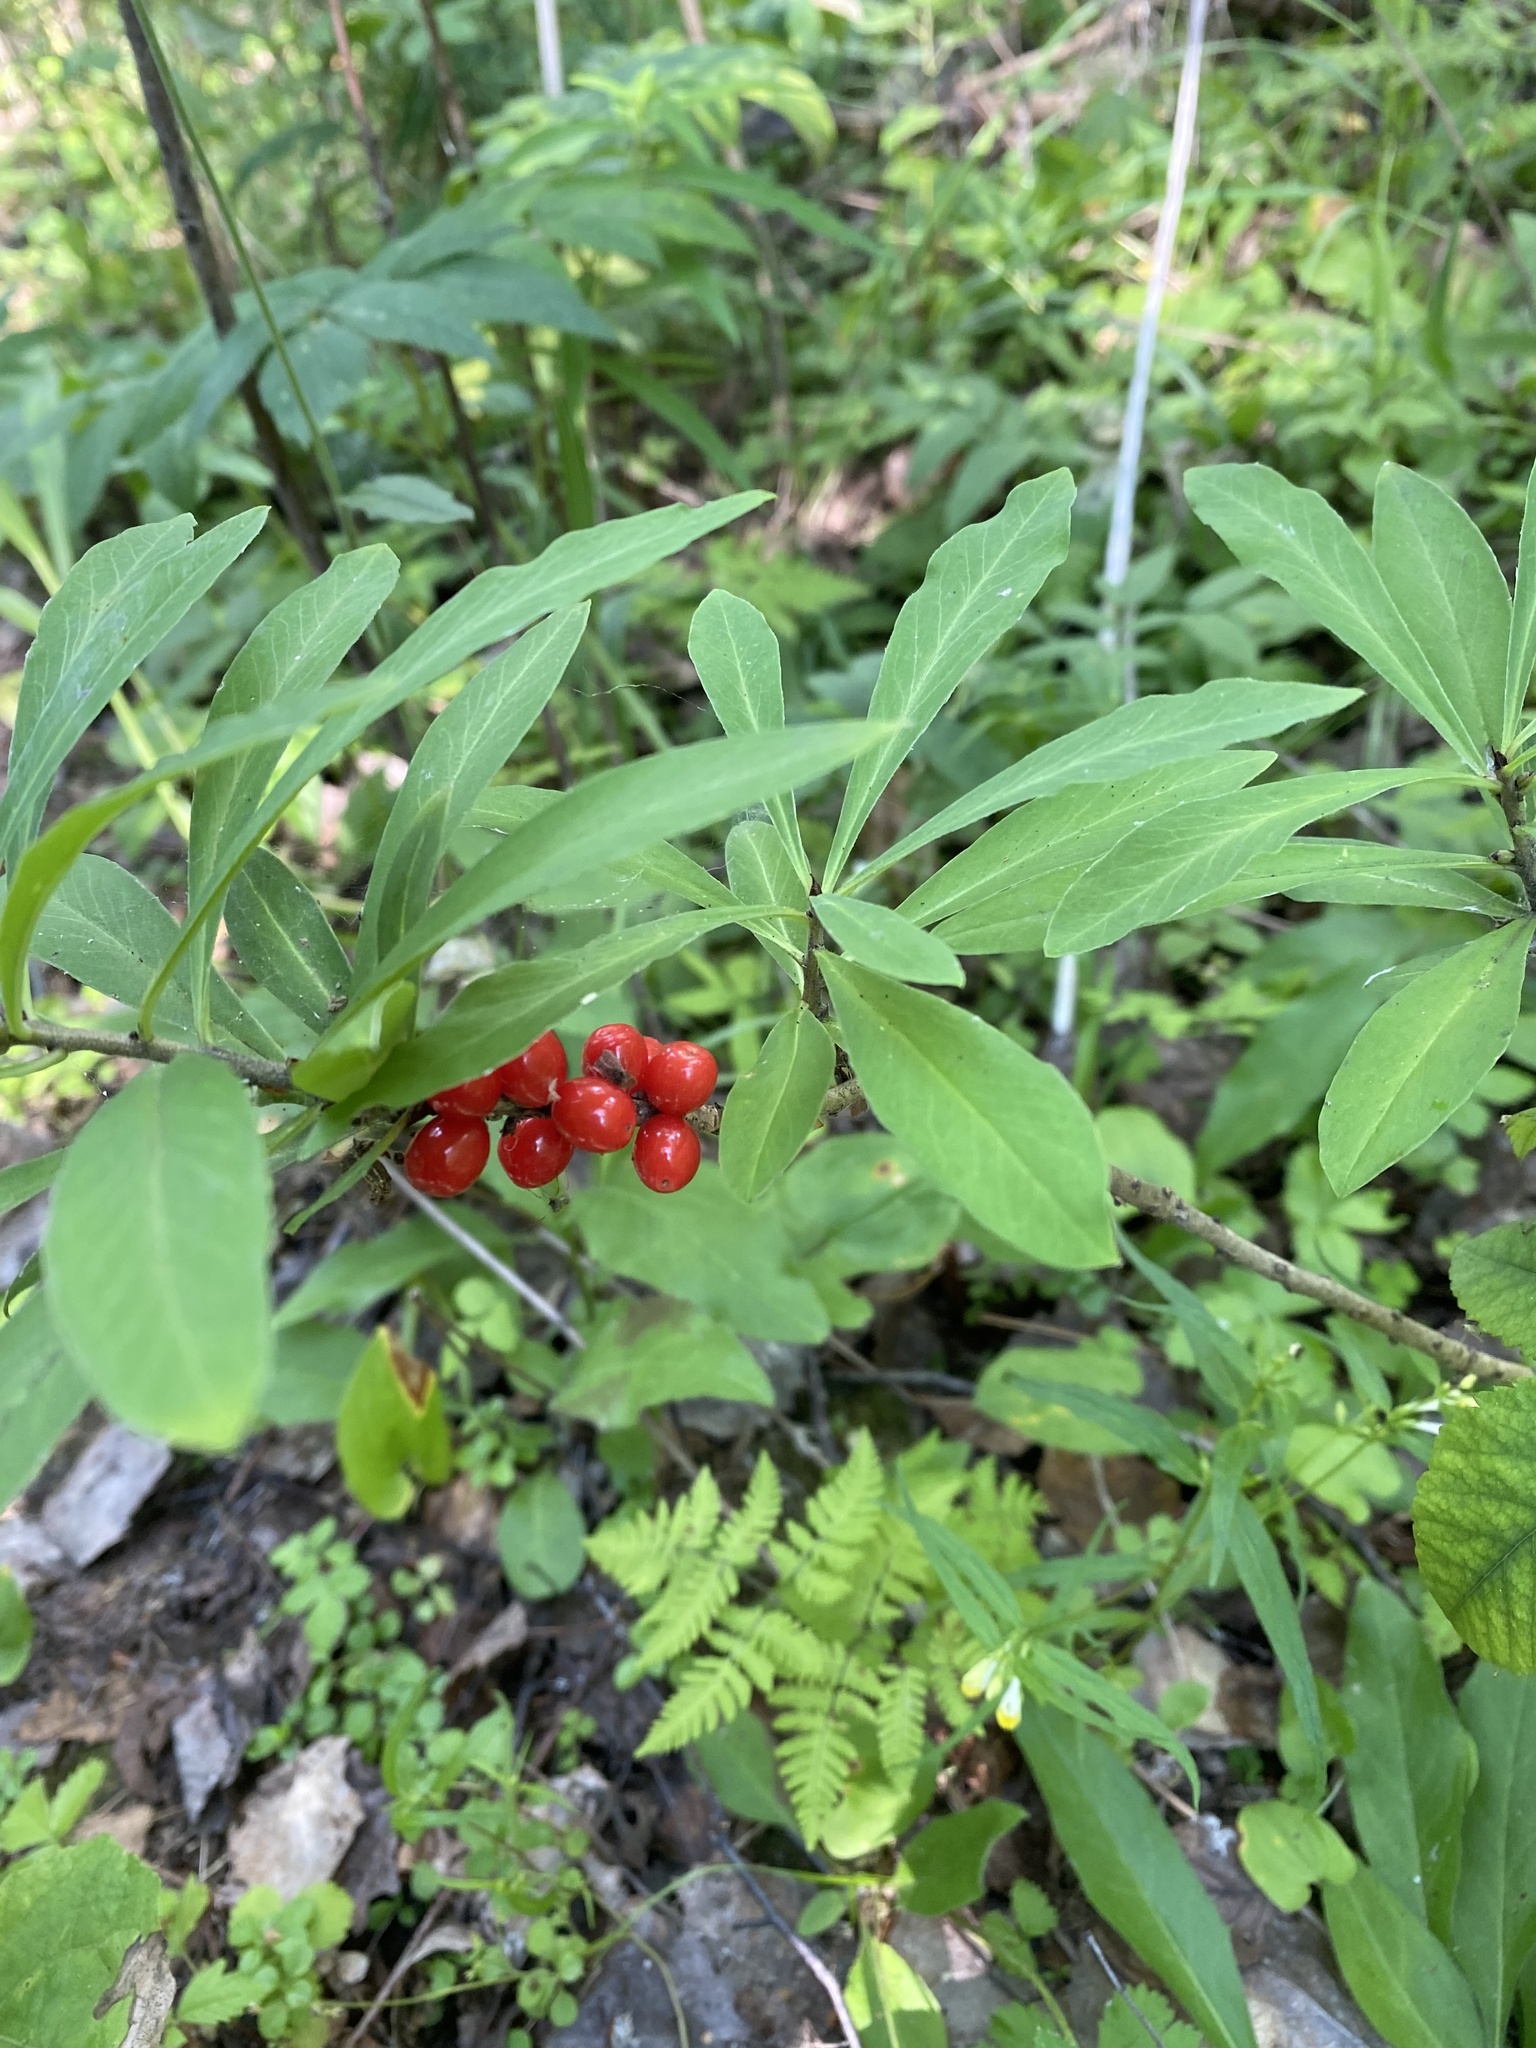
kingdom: Plantae
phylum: Tracheophyta
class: Magnoliopsida
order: Malvales
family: Thymelaeaceae
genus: Daphne
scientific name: Daphne mezereum
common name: Mezereon
